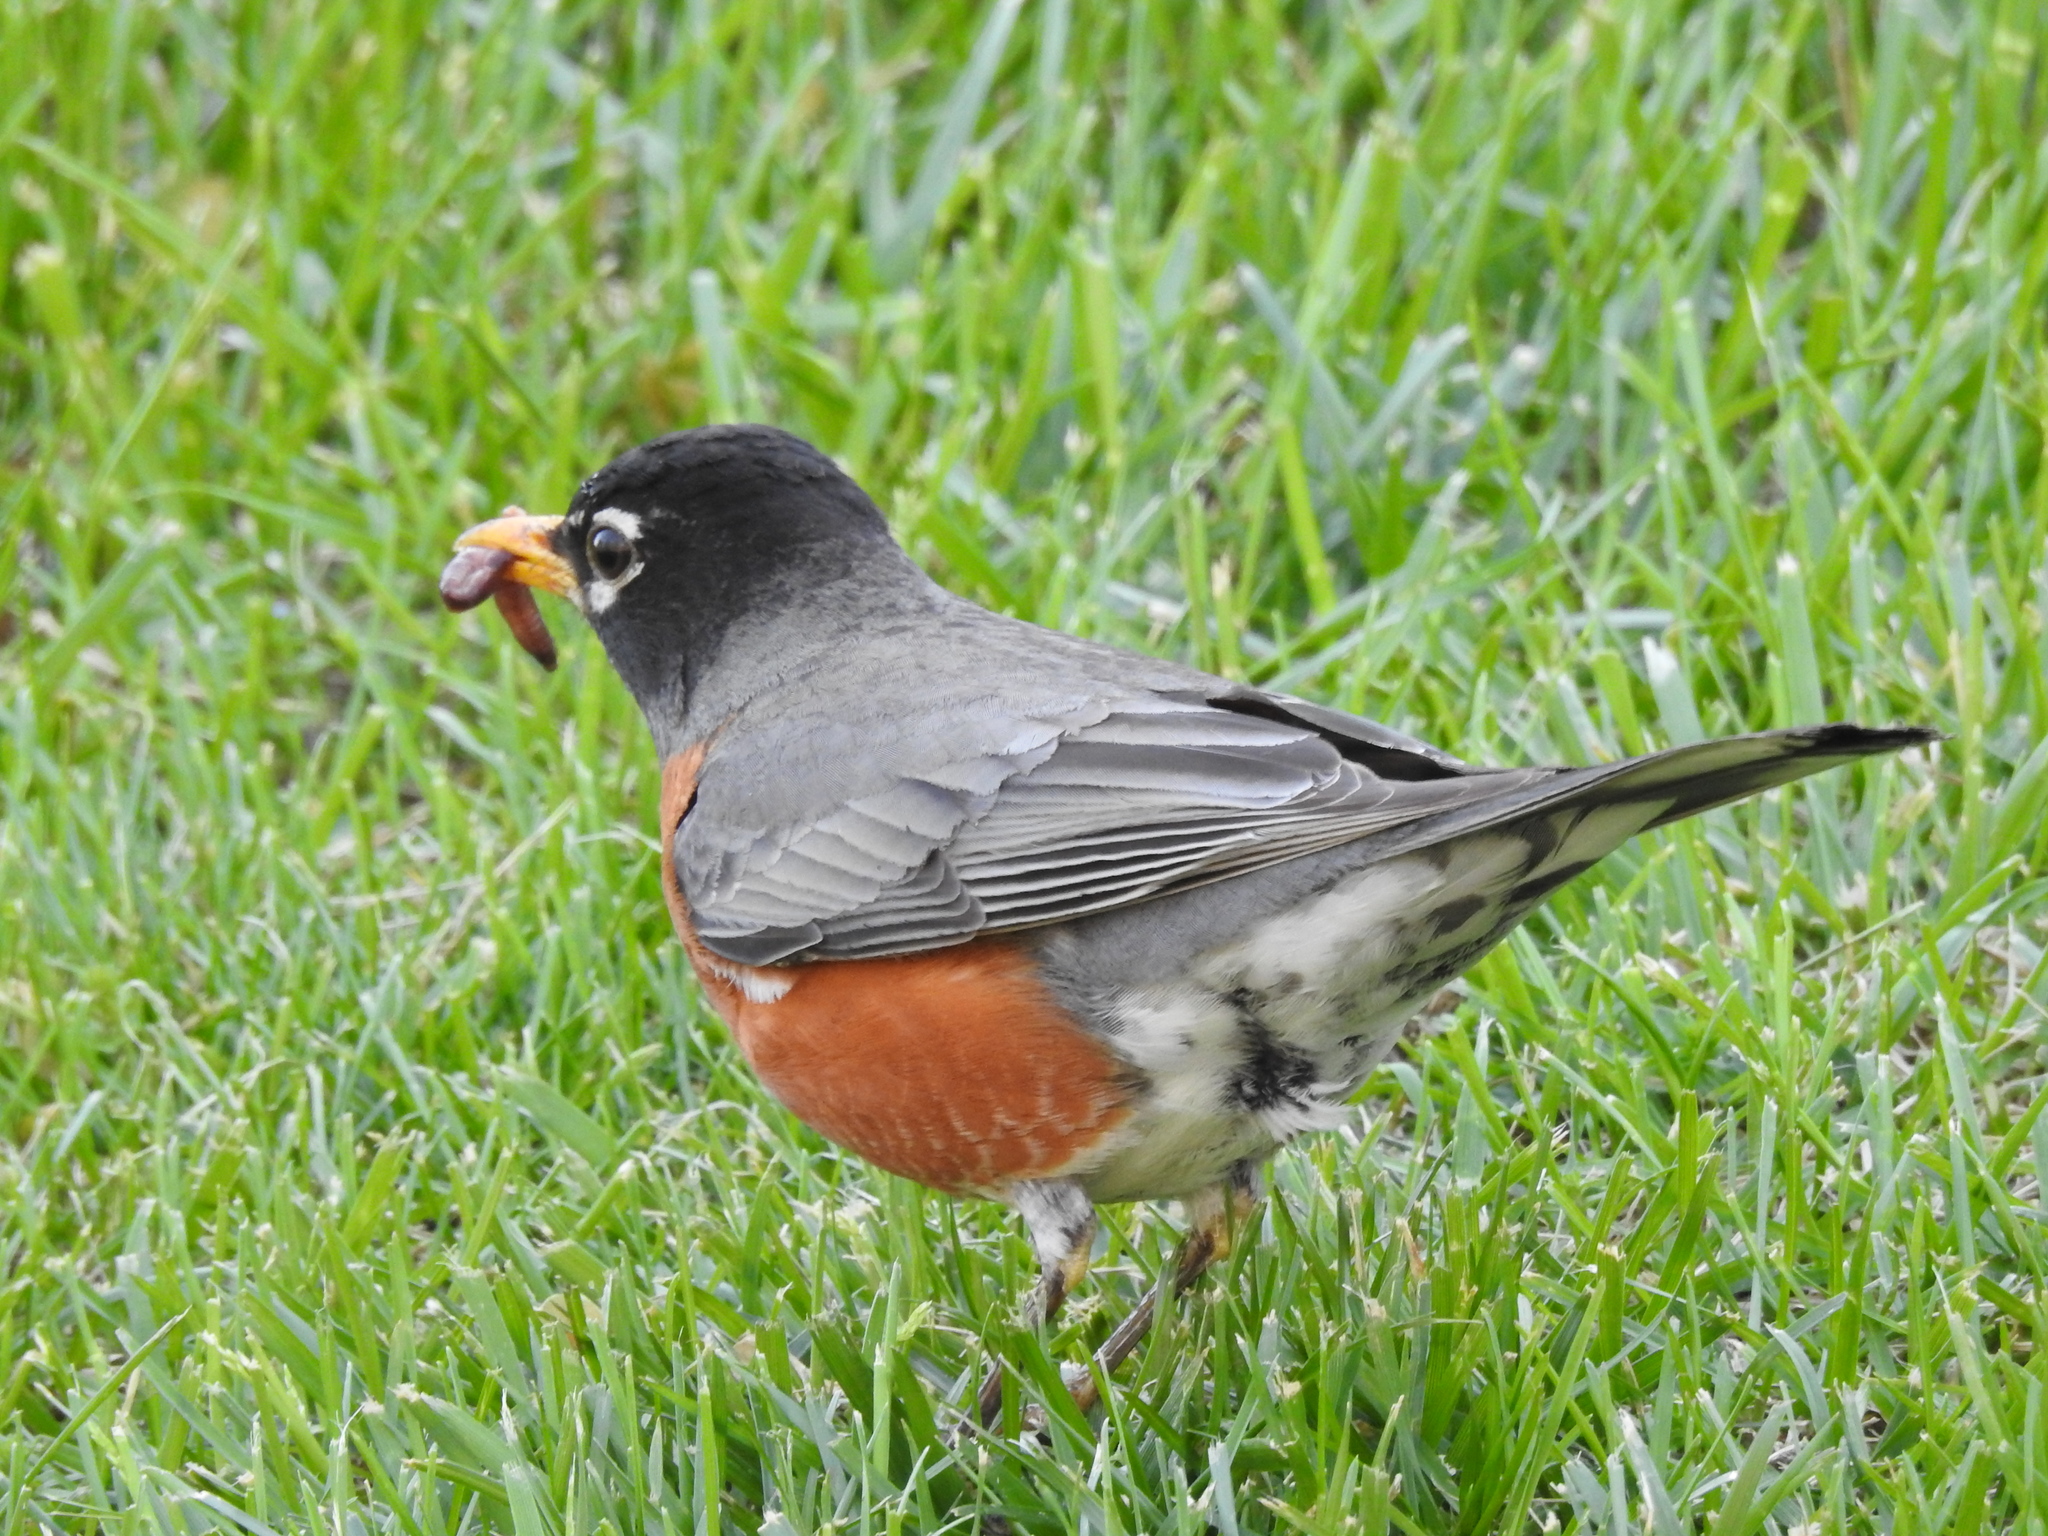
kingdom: Animalia
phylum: Chordata
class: Aves
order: Passeriformes
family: Turdidae
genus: Turdus
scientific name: Turdus migratorius
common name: American robin
